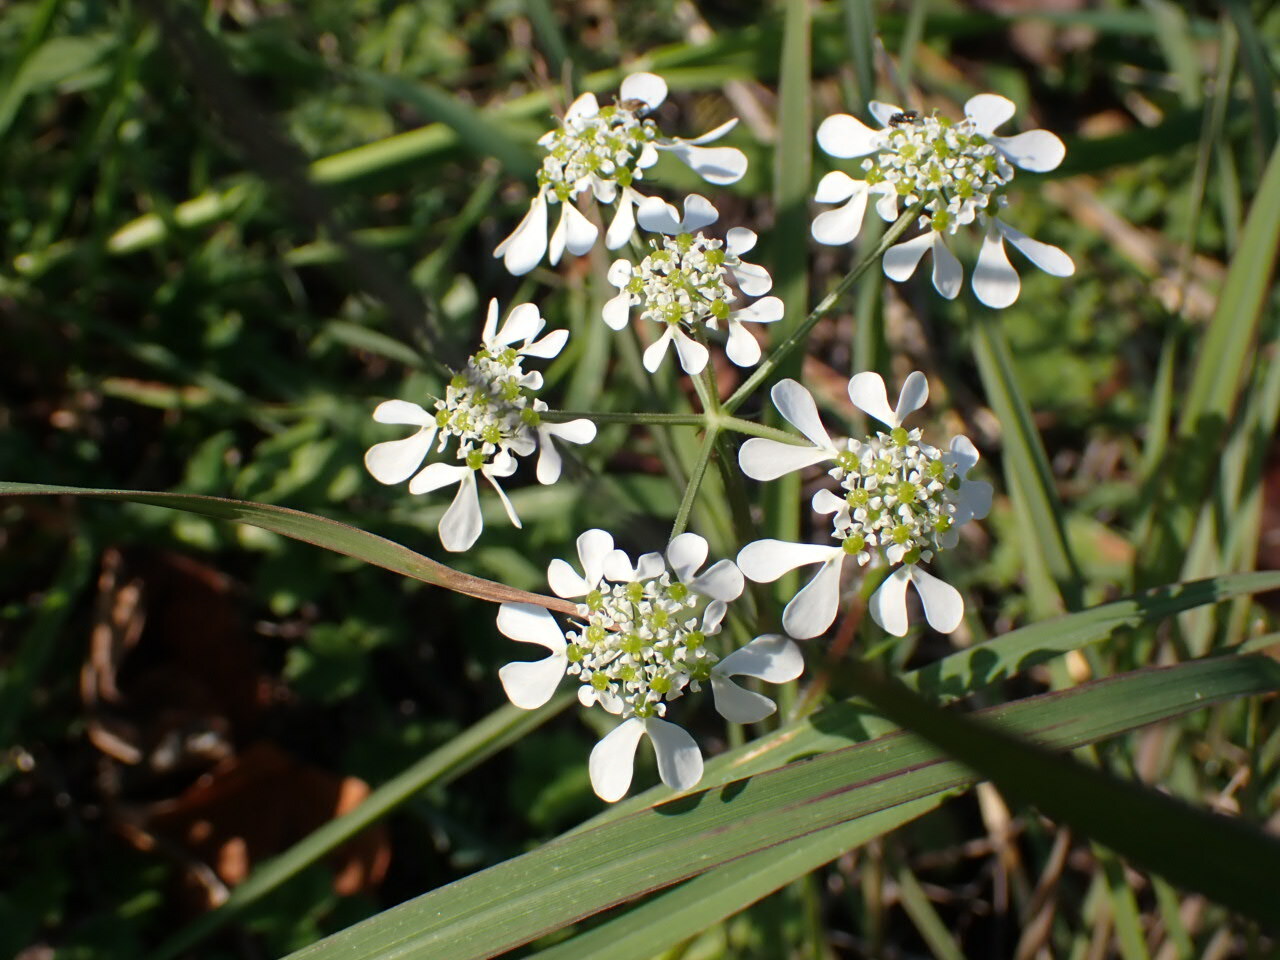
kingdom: Plantae
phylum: Tracheophyta
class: Magnoliopsida
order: Apiales
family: Apiaceae
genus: Tordylium
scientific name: Tordylium apulum
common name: Mediterranean hartwort
